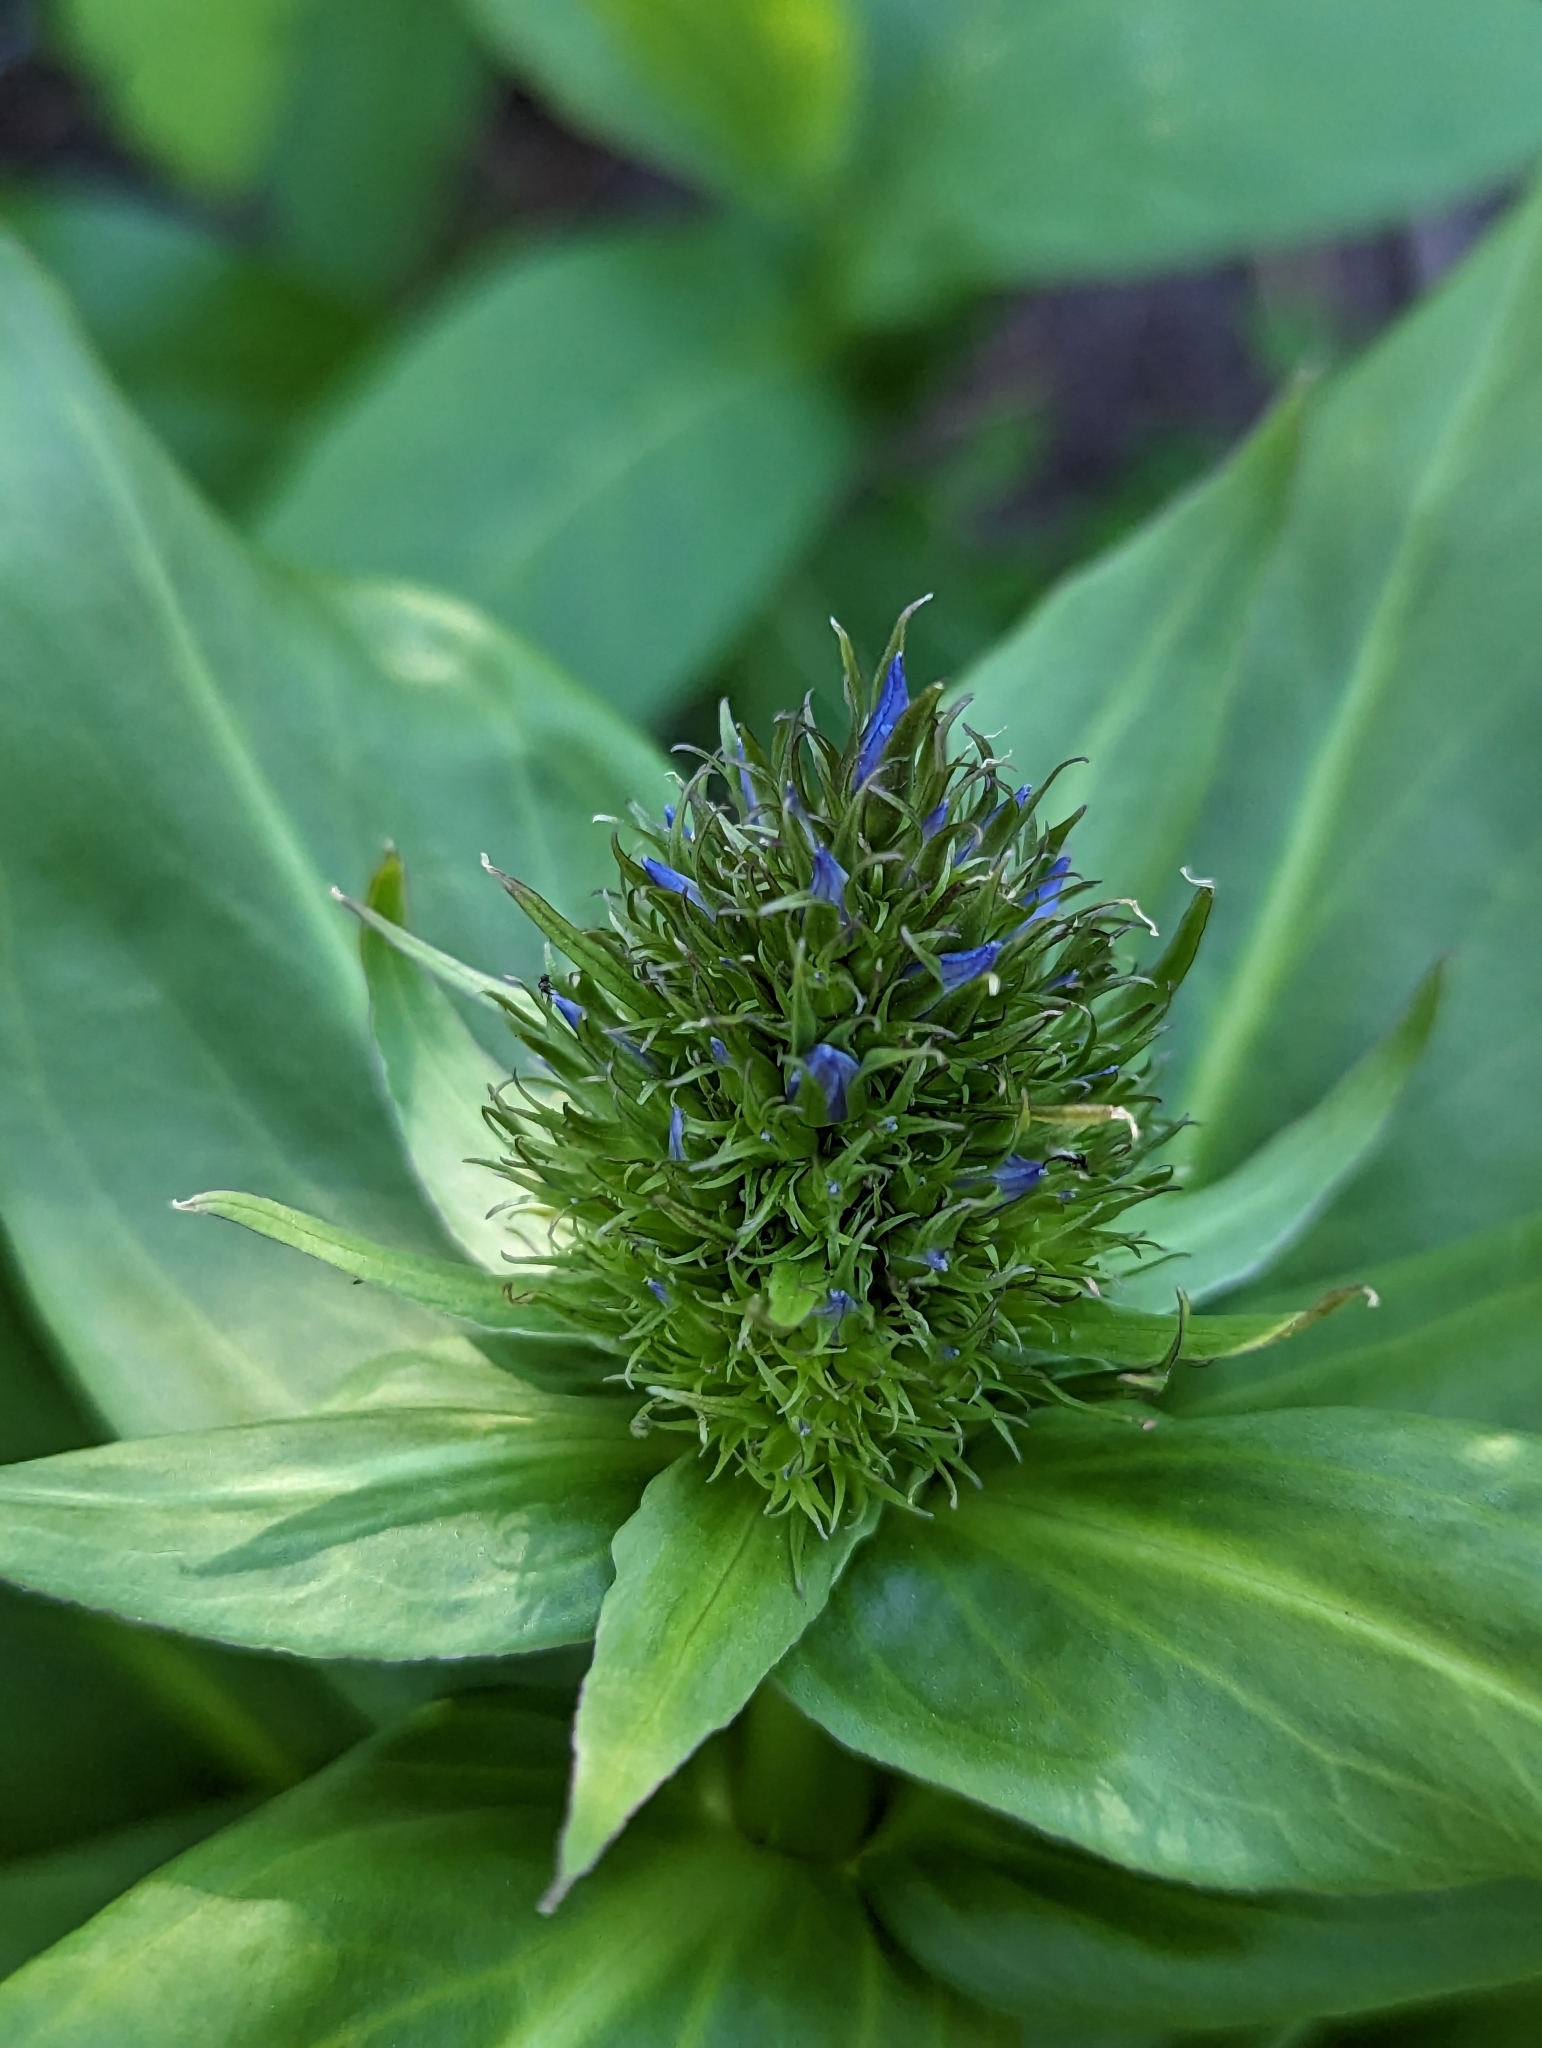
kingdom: Plantae
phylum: Tracheophyta
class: Magnoliopsida
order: Gentianales
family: Gentianaceae
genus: Frasera
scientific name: Frasera fastigiata
